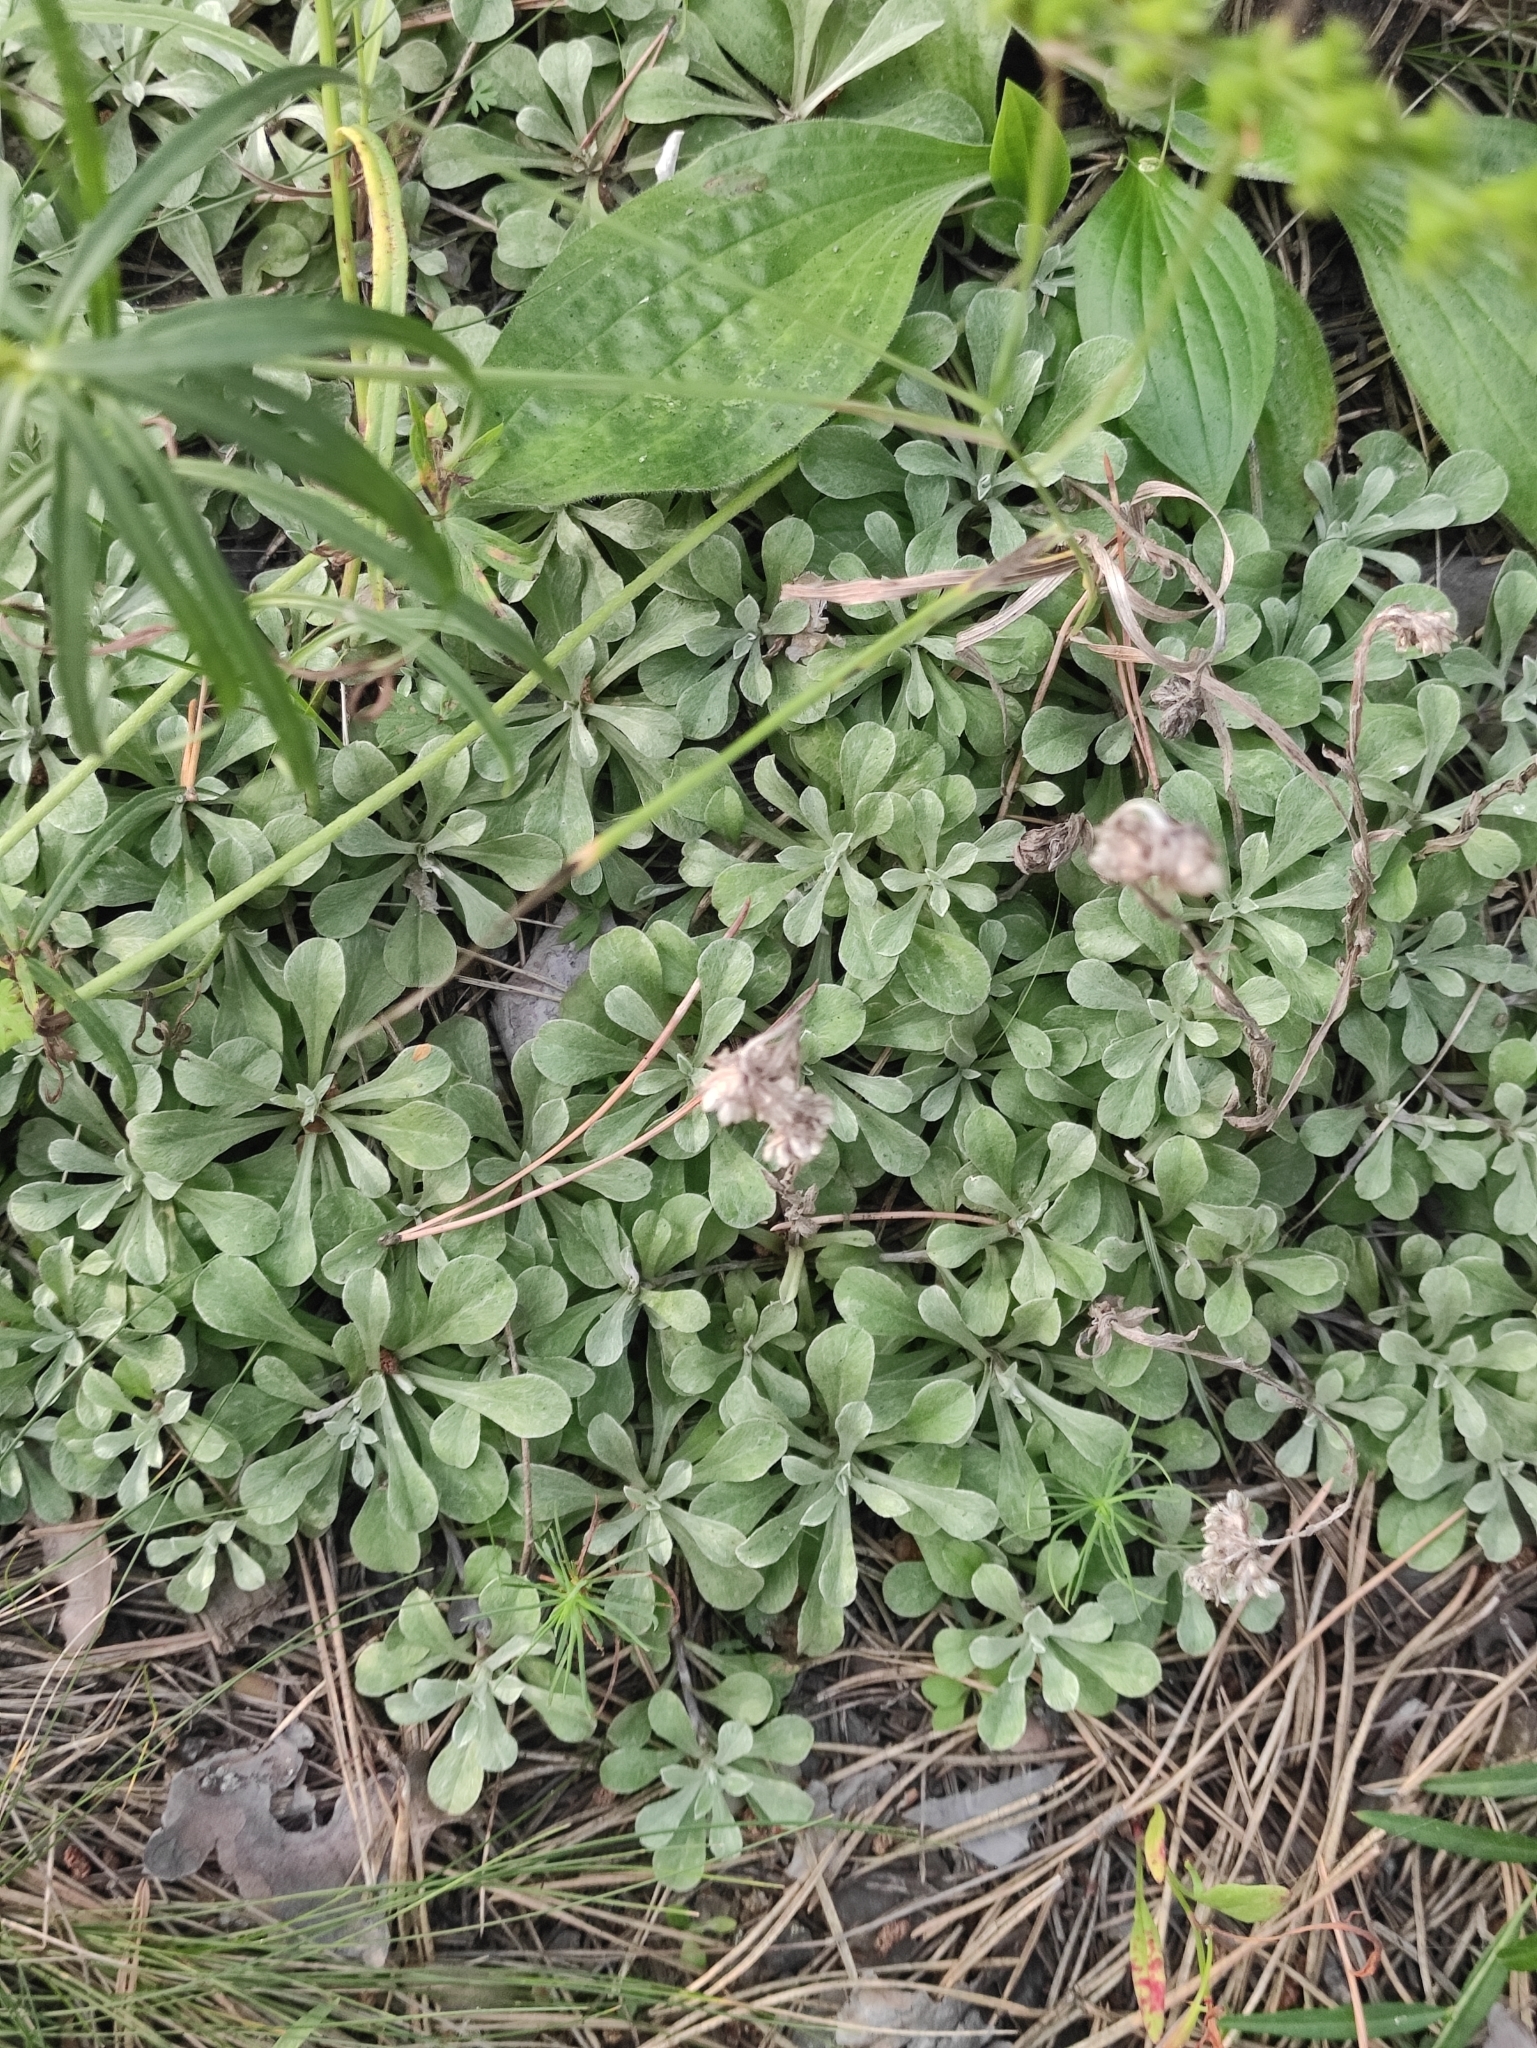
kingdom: Plantae
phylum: Tracheophyta
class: Magnoliopsida
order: Asterales
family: Asteraceae
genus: Antennaria
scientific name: Antennaria dioica
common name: Mountain everlasting
